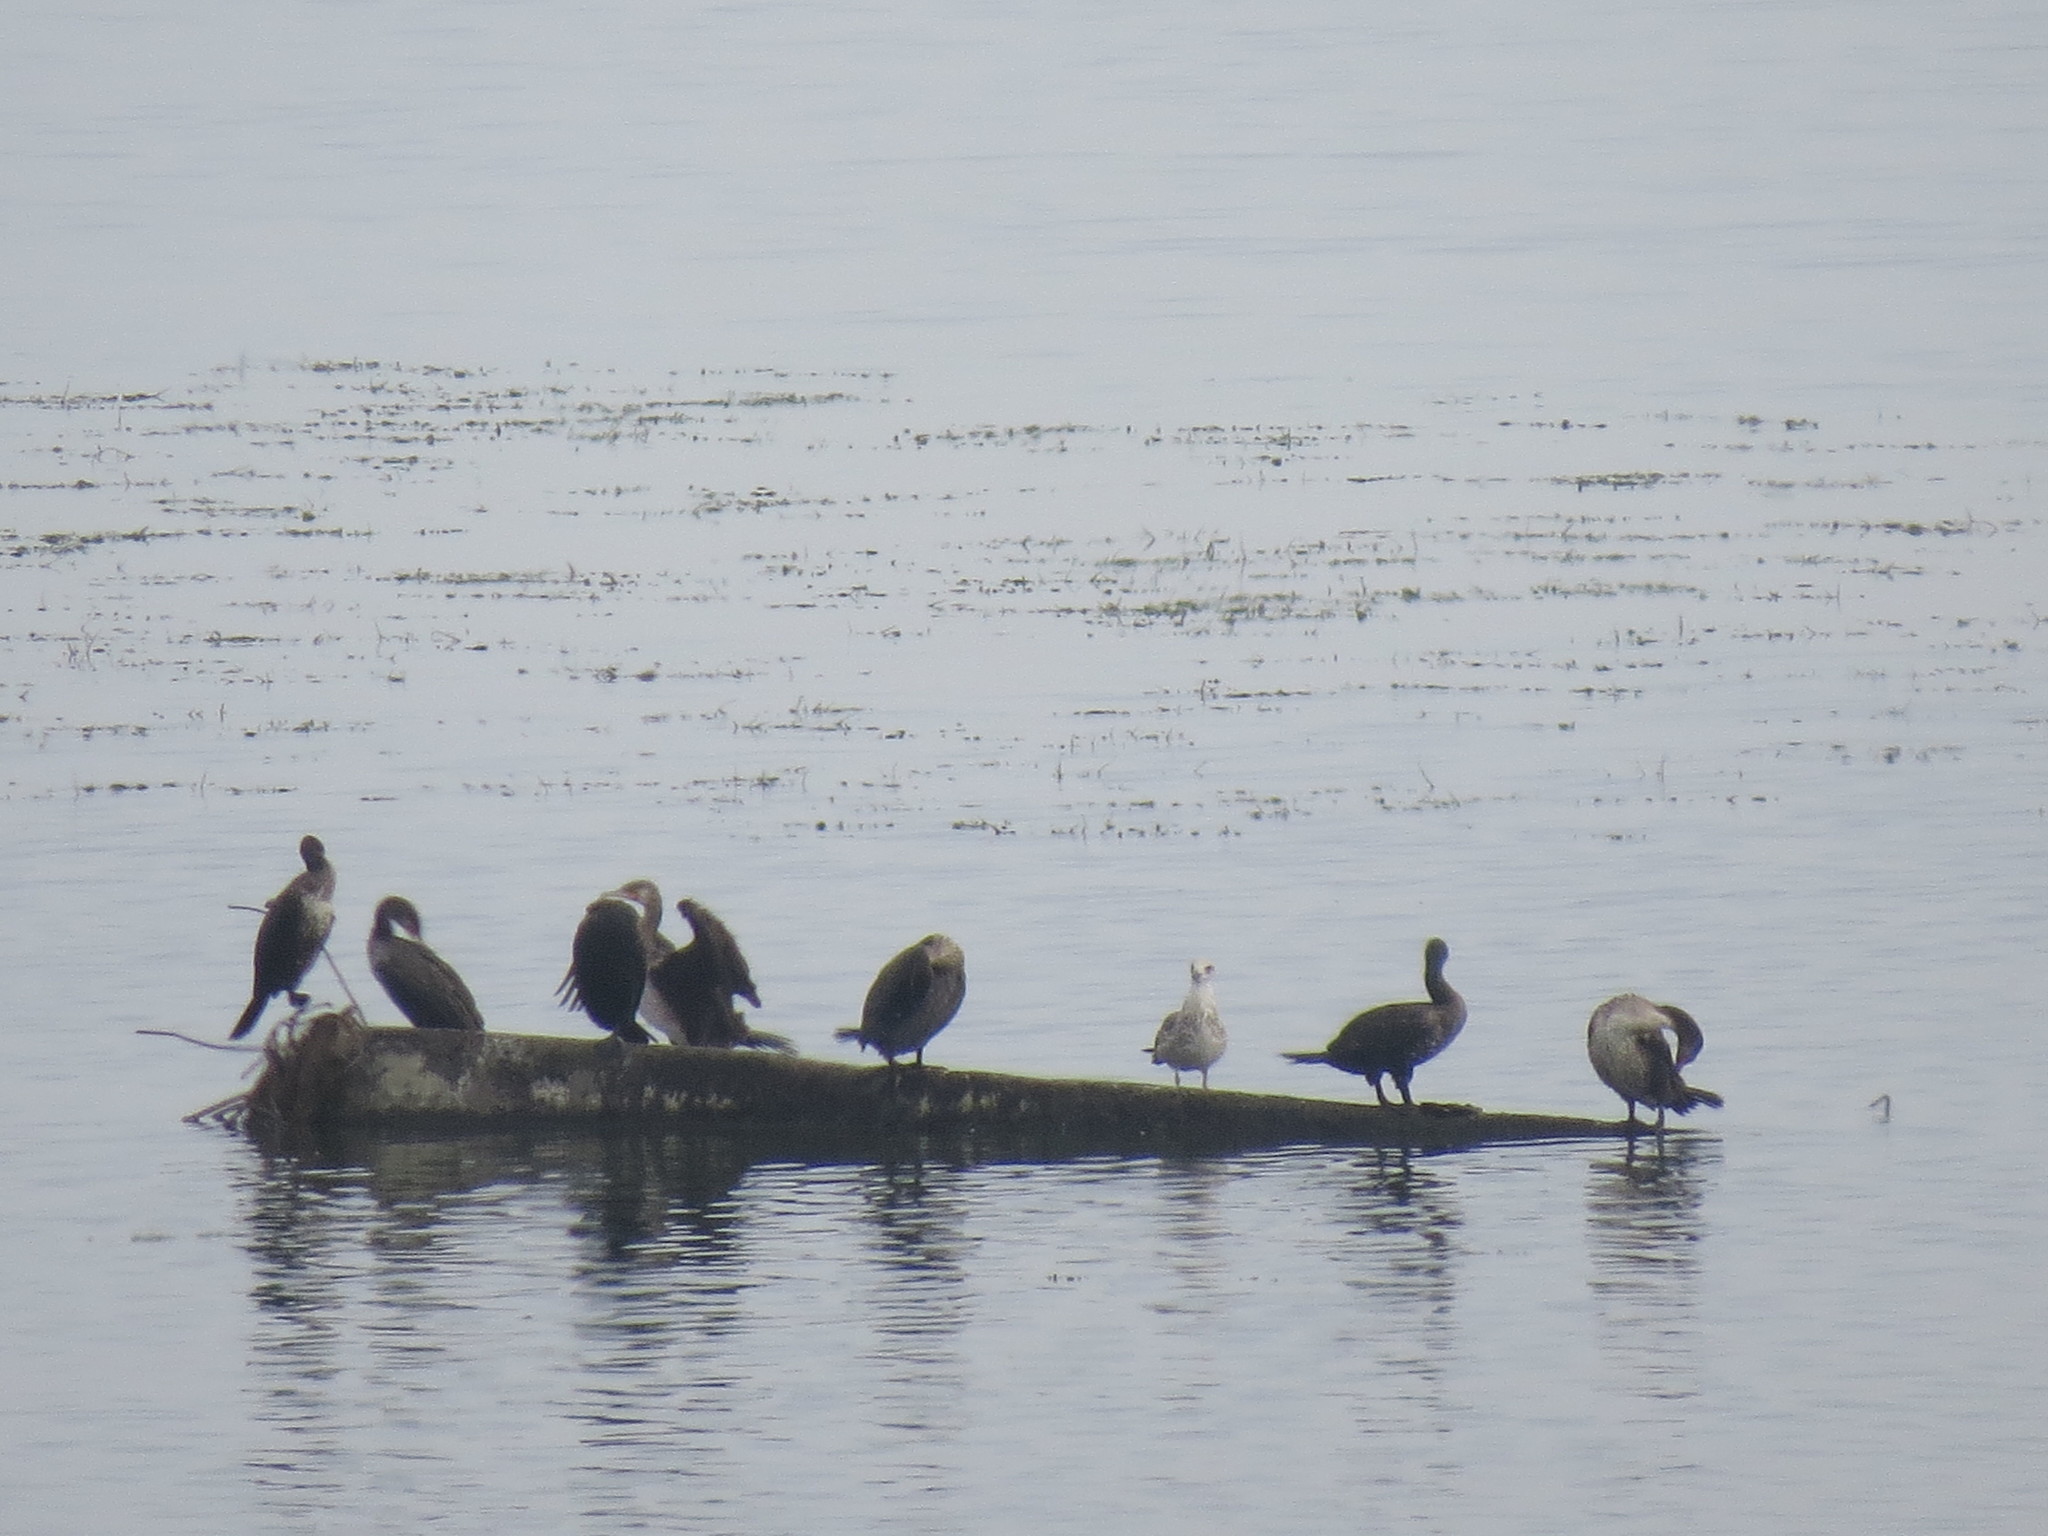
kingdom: Animalia
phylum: Chordata
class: Aves
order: Suliformes
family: Phalacrocoracidae
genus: Phalacrocorax
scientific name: Phalacrocorax carbo
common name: Great cormorant
